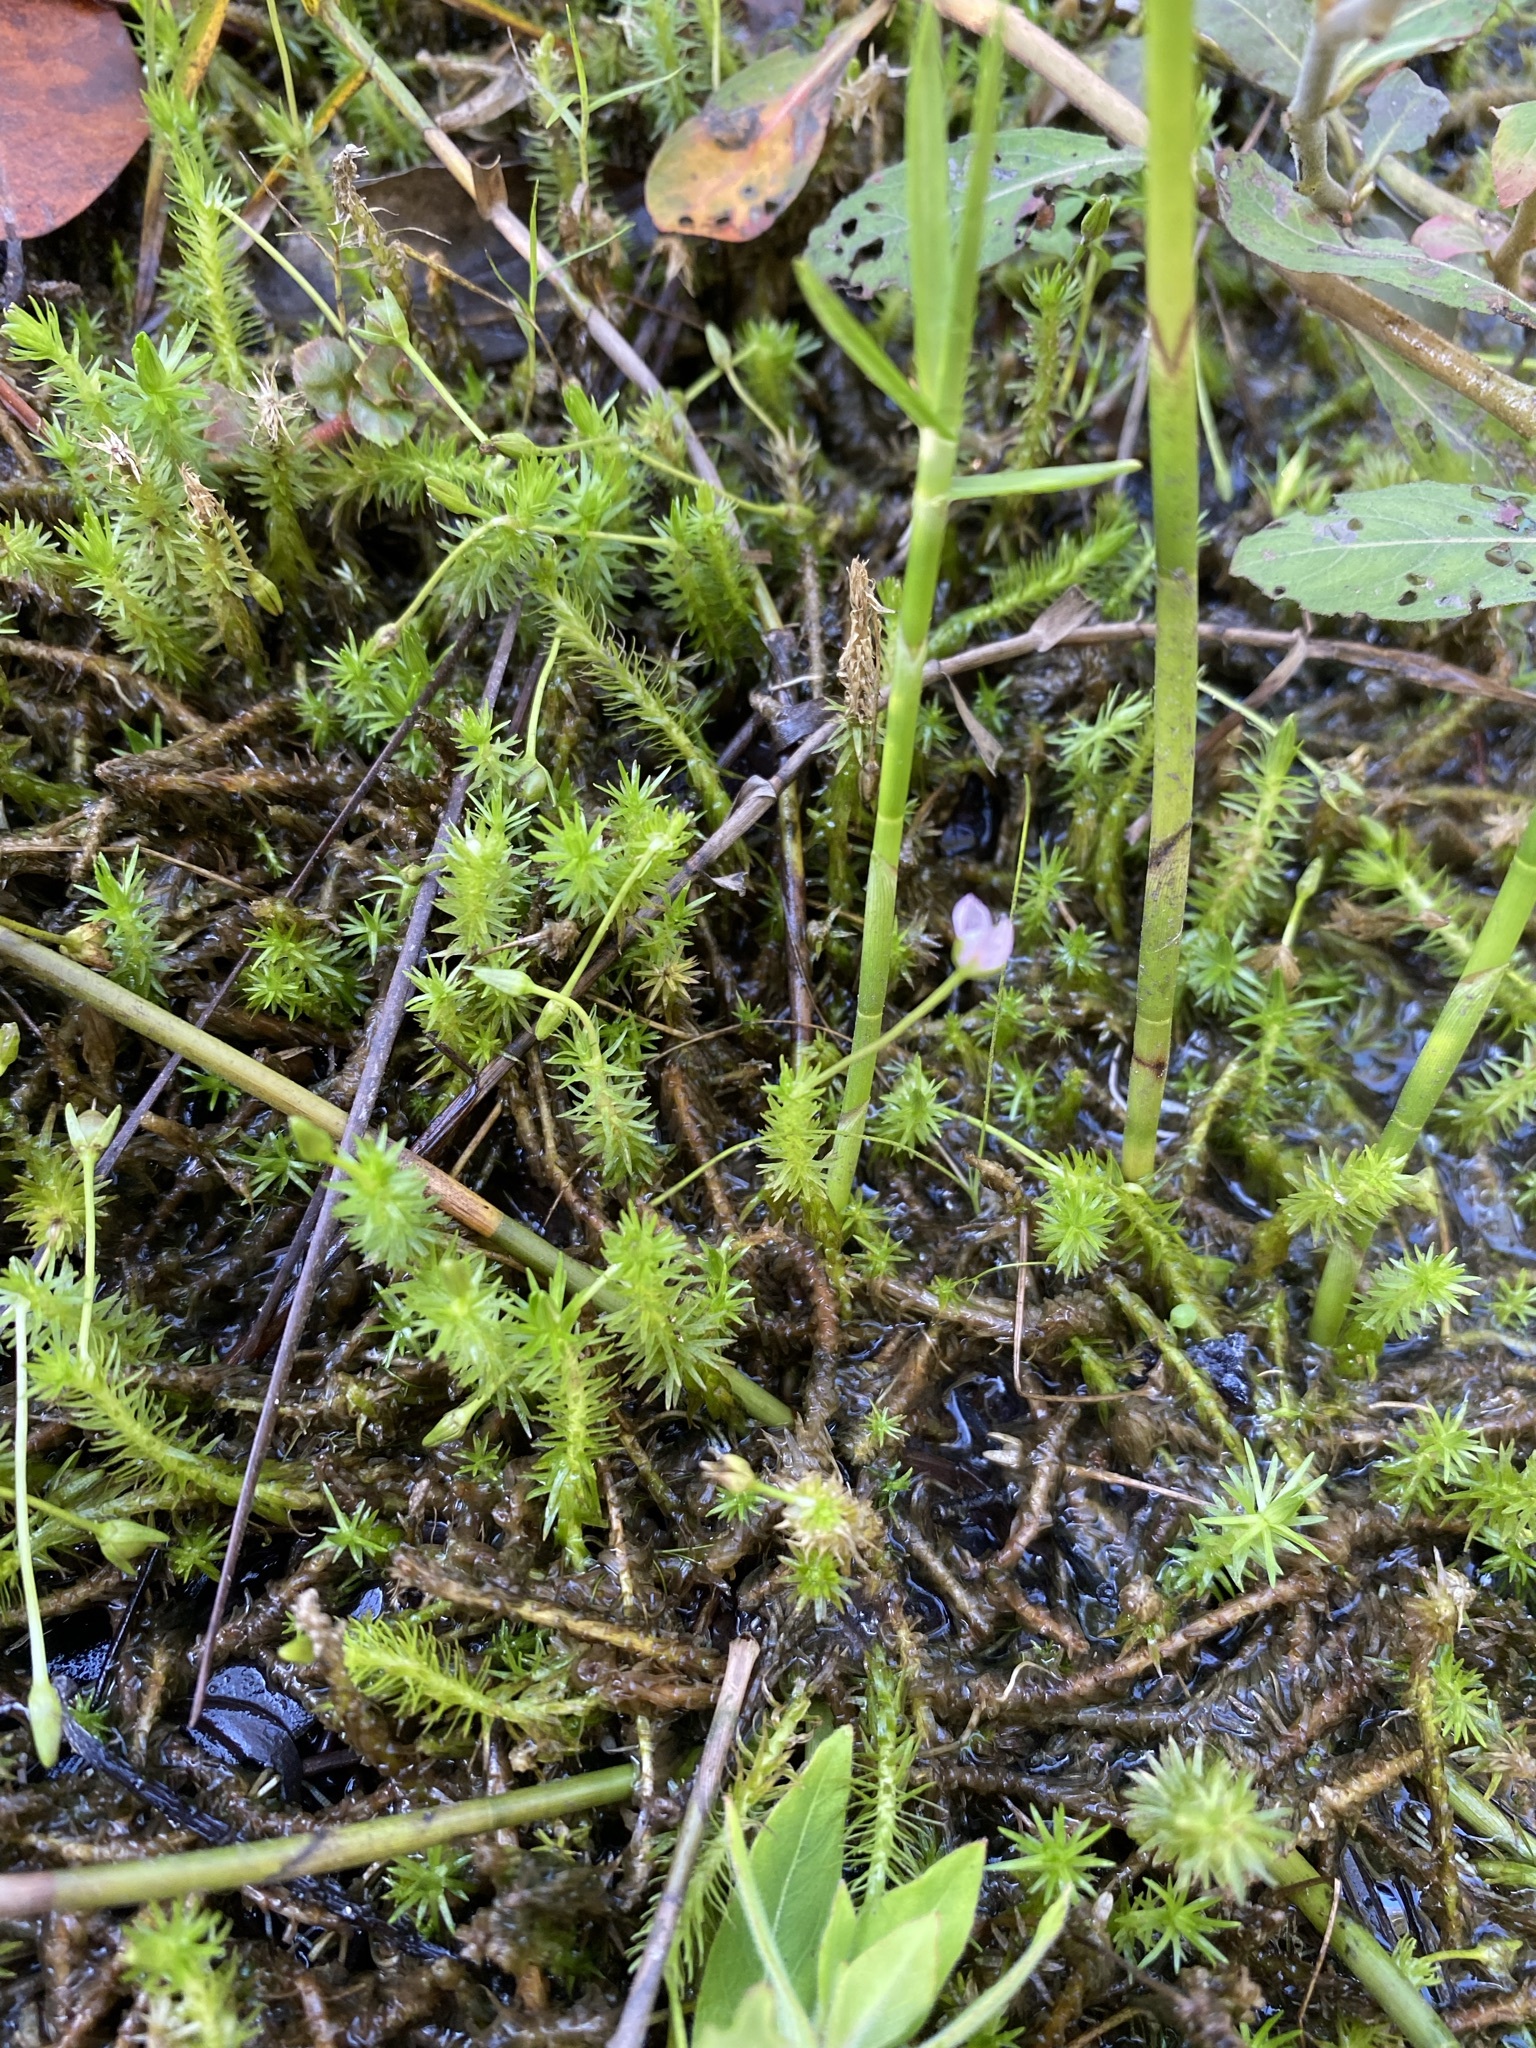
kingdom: Plantae
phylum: Tracheophyta
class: Liliopsida
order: Poales
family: Mayacaceae
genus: Mayaca
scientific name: Mayaca fluviatilis
